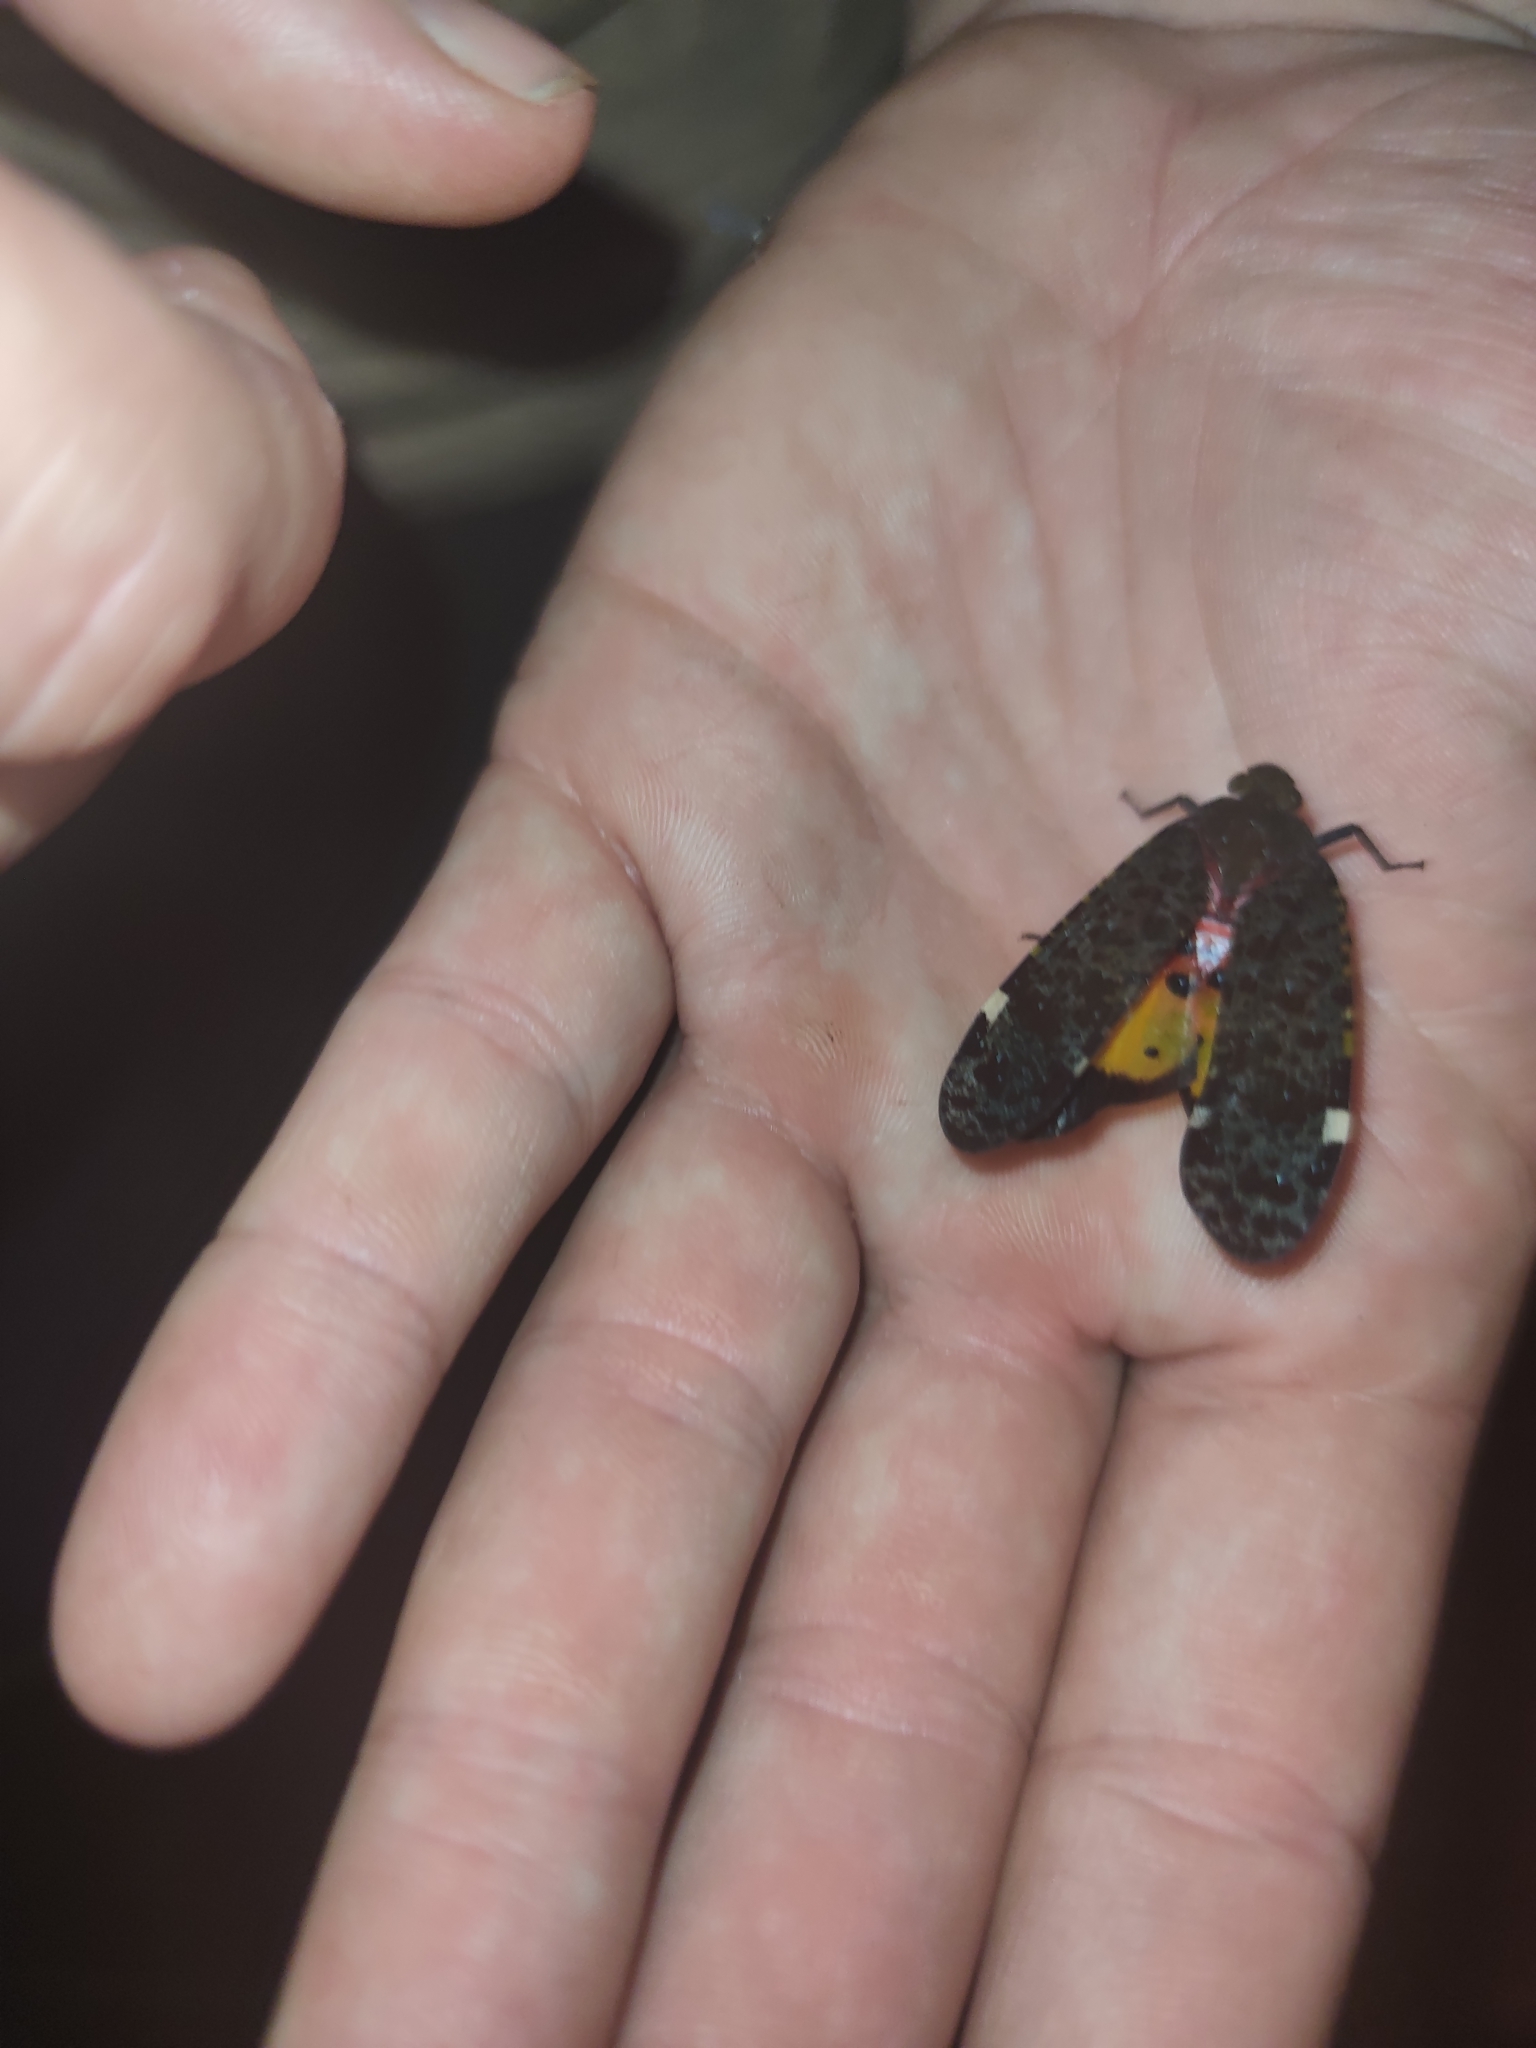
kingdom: Animalia
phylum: Arthropoda
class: Insecta
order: Hemiptera
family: Fulgoridae
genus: Penthicodes
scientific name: Penthicodes variegata
